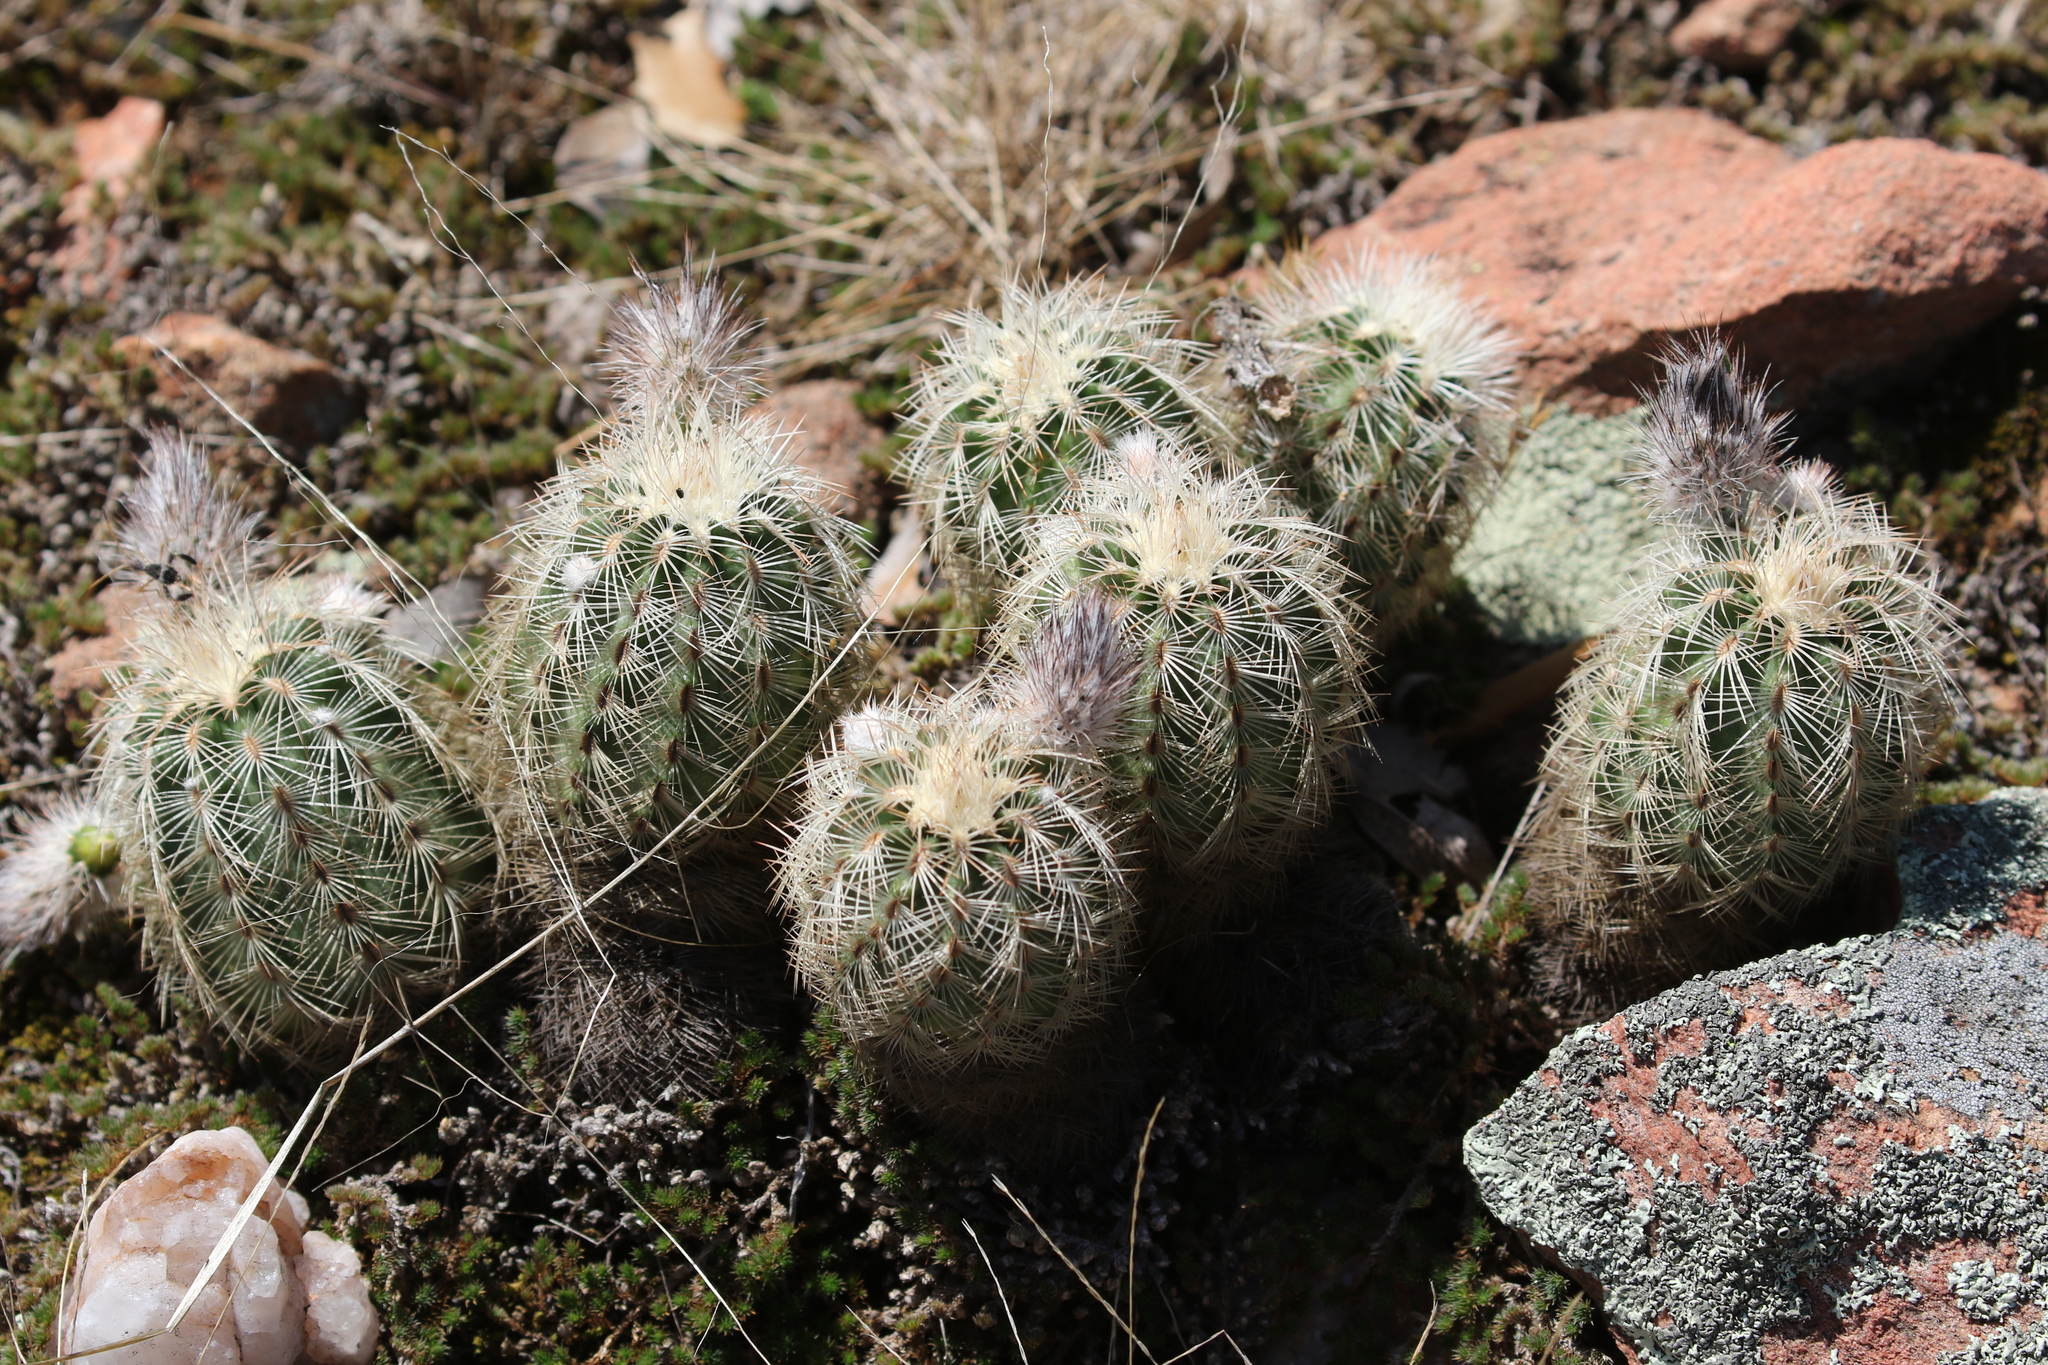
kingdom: Plantae
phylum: Tracheophyta
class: Magnoliopsida
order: Caryophyllales
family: Cactaceae
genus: Echinocereus
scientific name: Echinocereus reichenbachii
